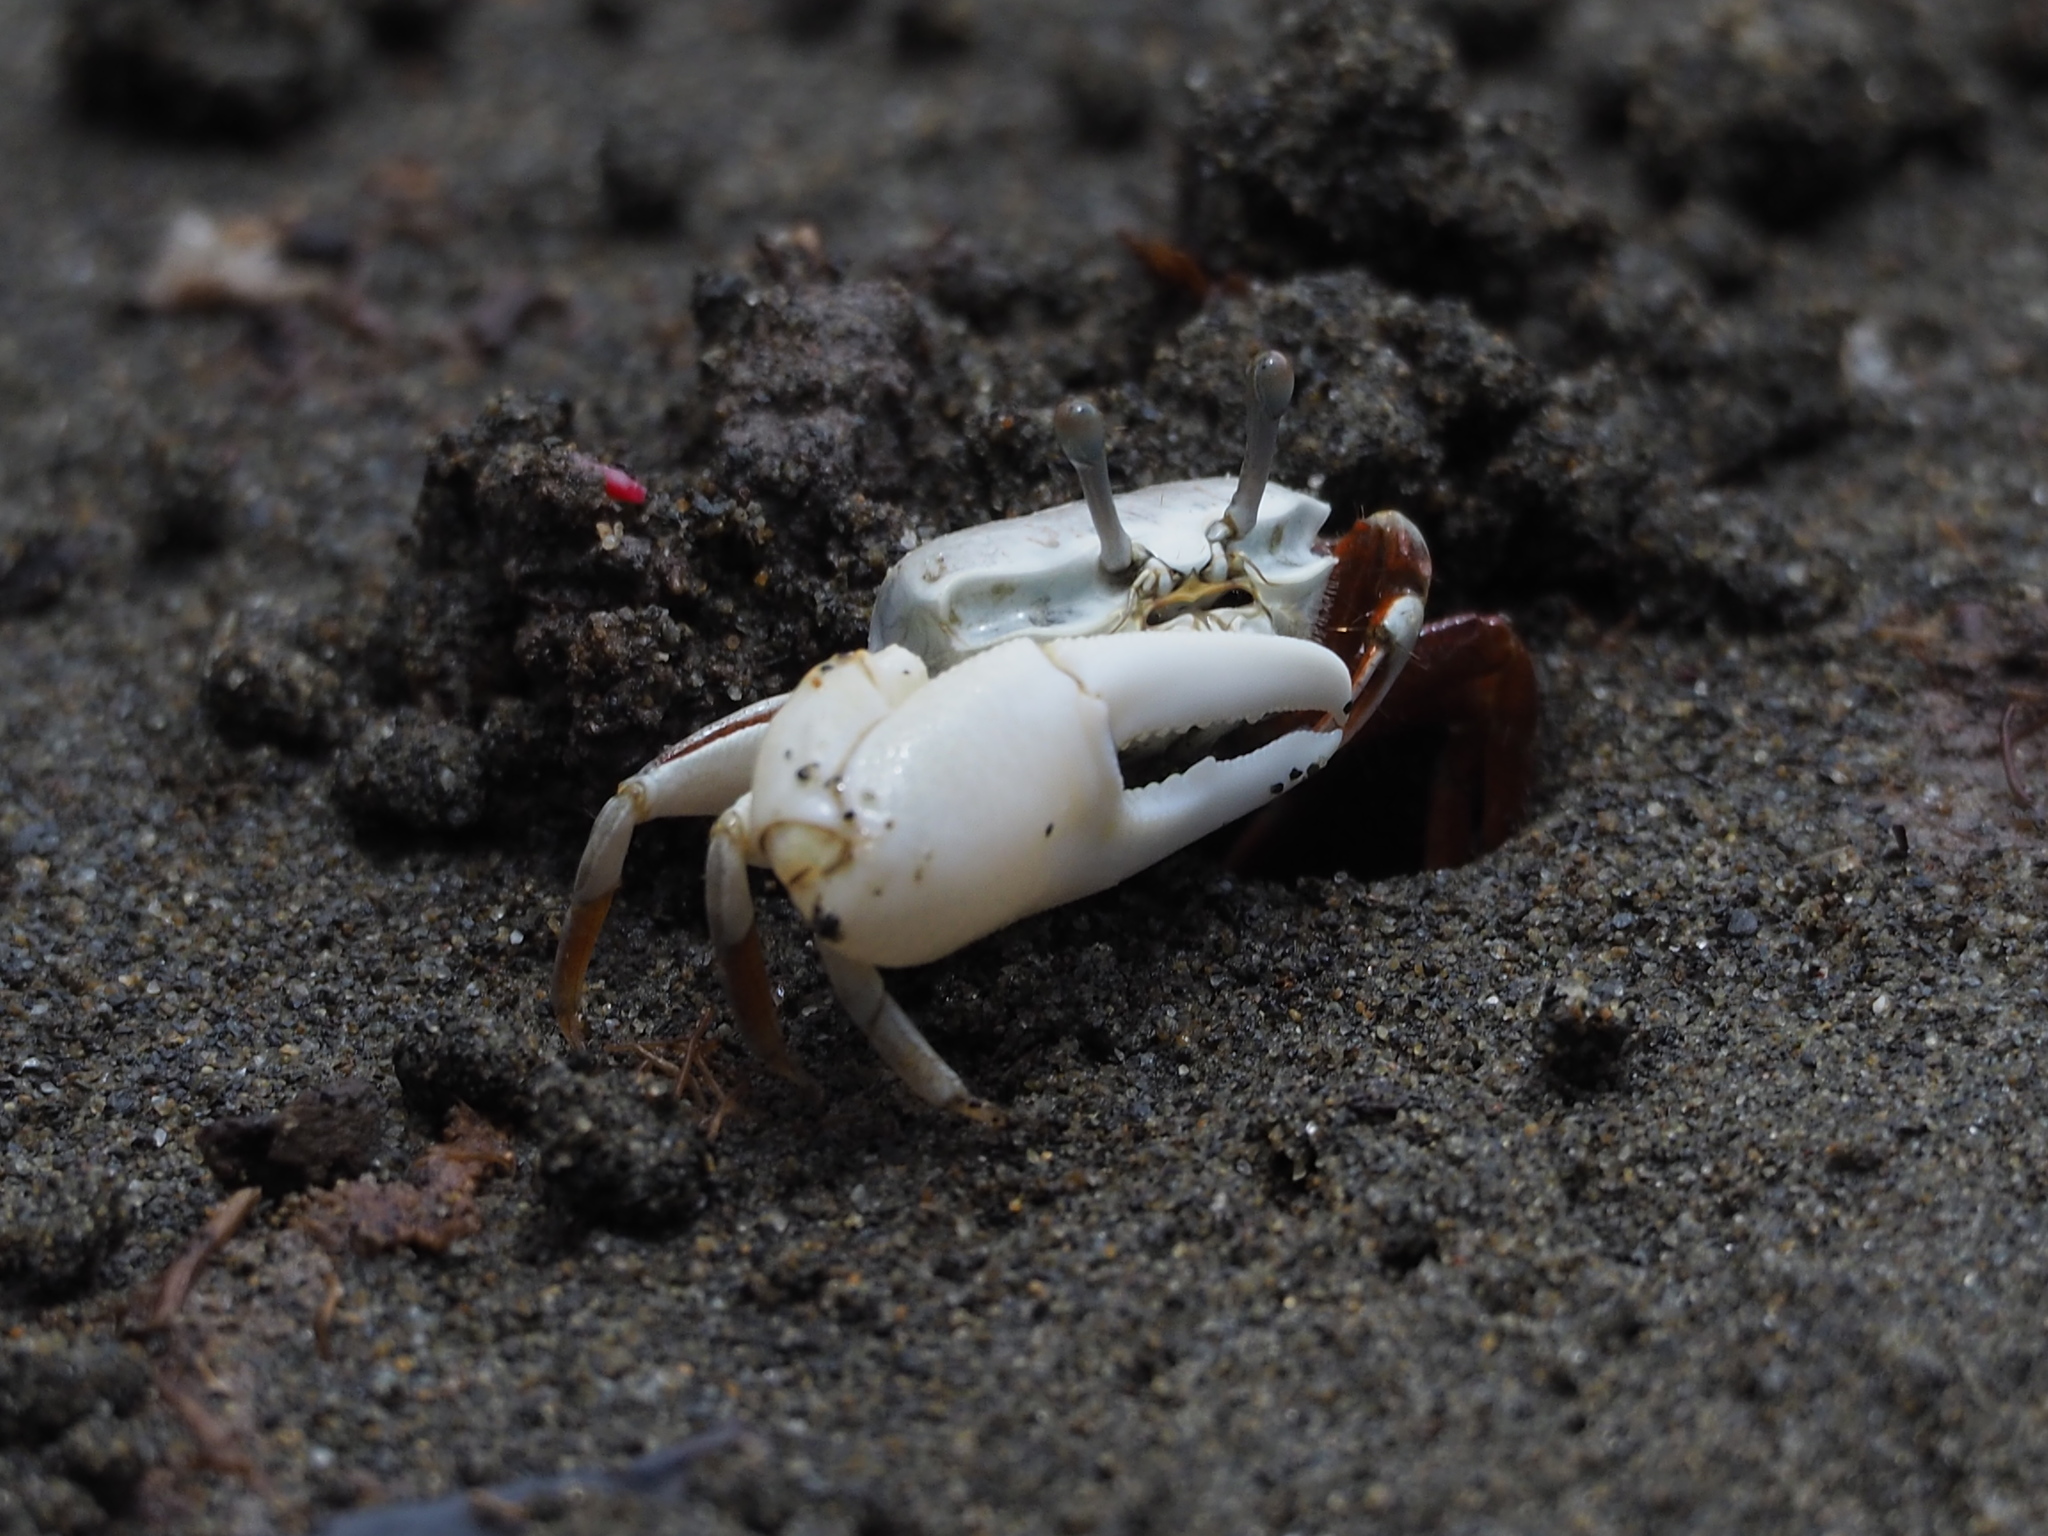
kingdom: Animalia
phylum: Arthropoda
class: Malacostraca
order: Decapoda
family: Ocypodidae
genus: Austruca
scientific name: Austruca lactea
